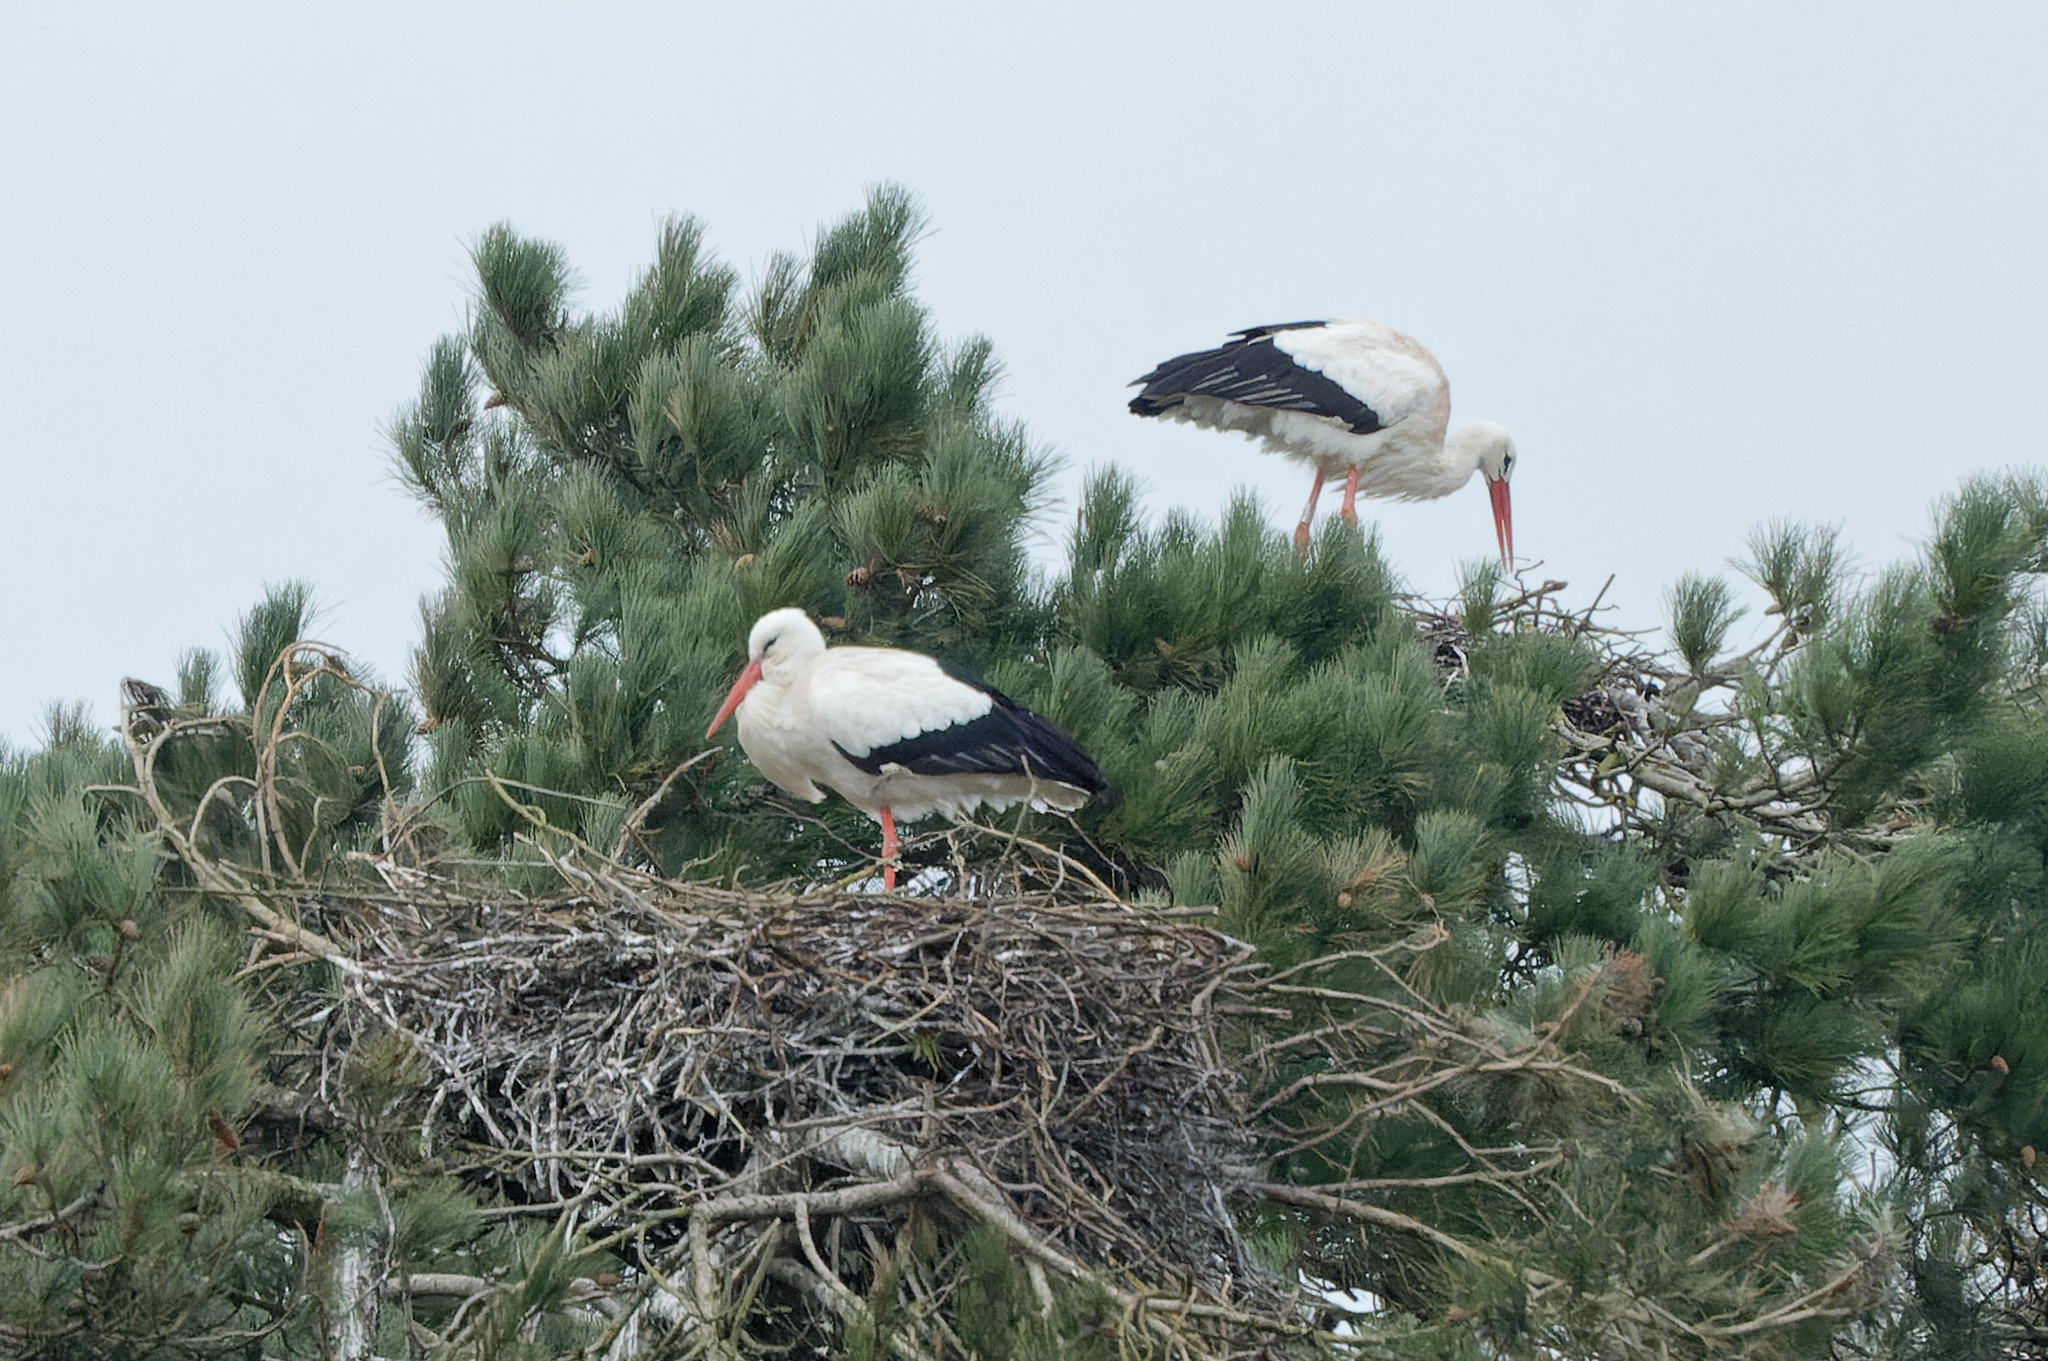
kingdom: Animalia
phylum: Chordata
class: Aves
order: Ciconiiformes
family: Ciconiidae
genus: Ciconia
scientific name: Ciconia ciconia
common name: White stork
